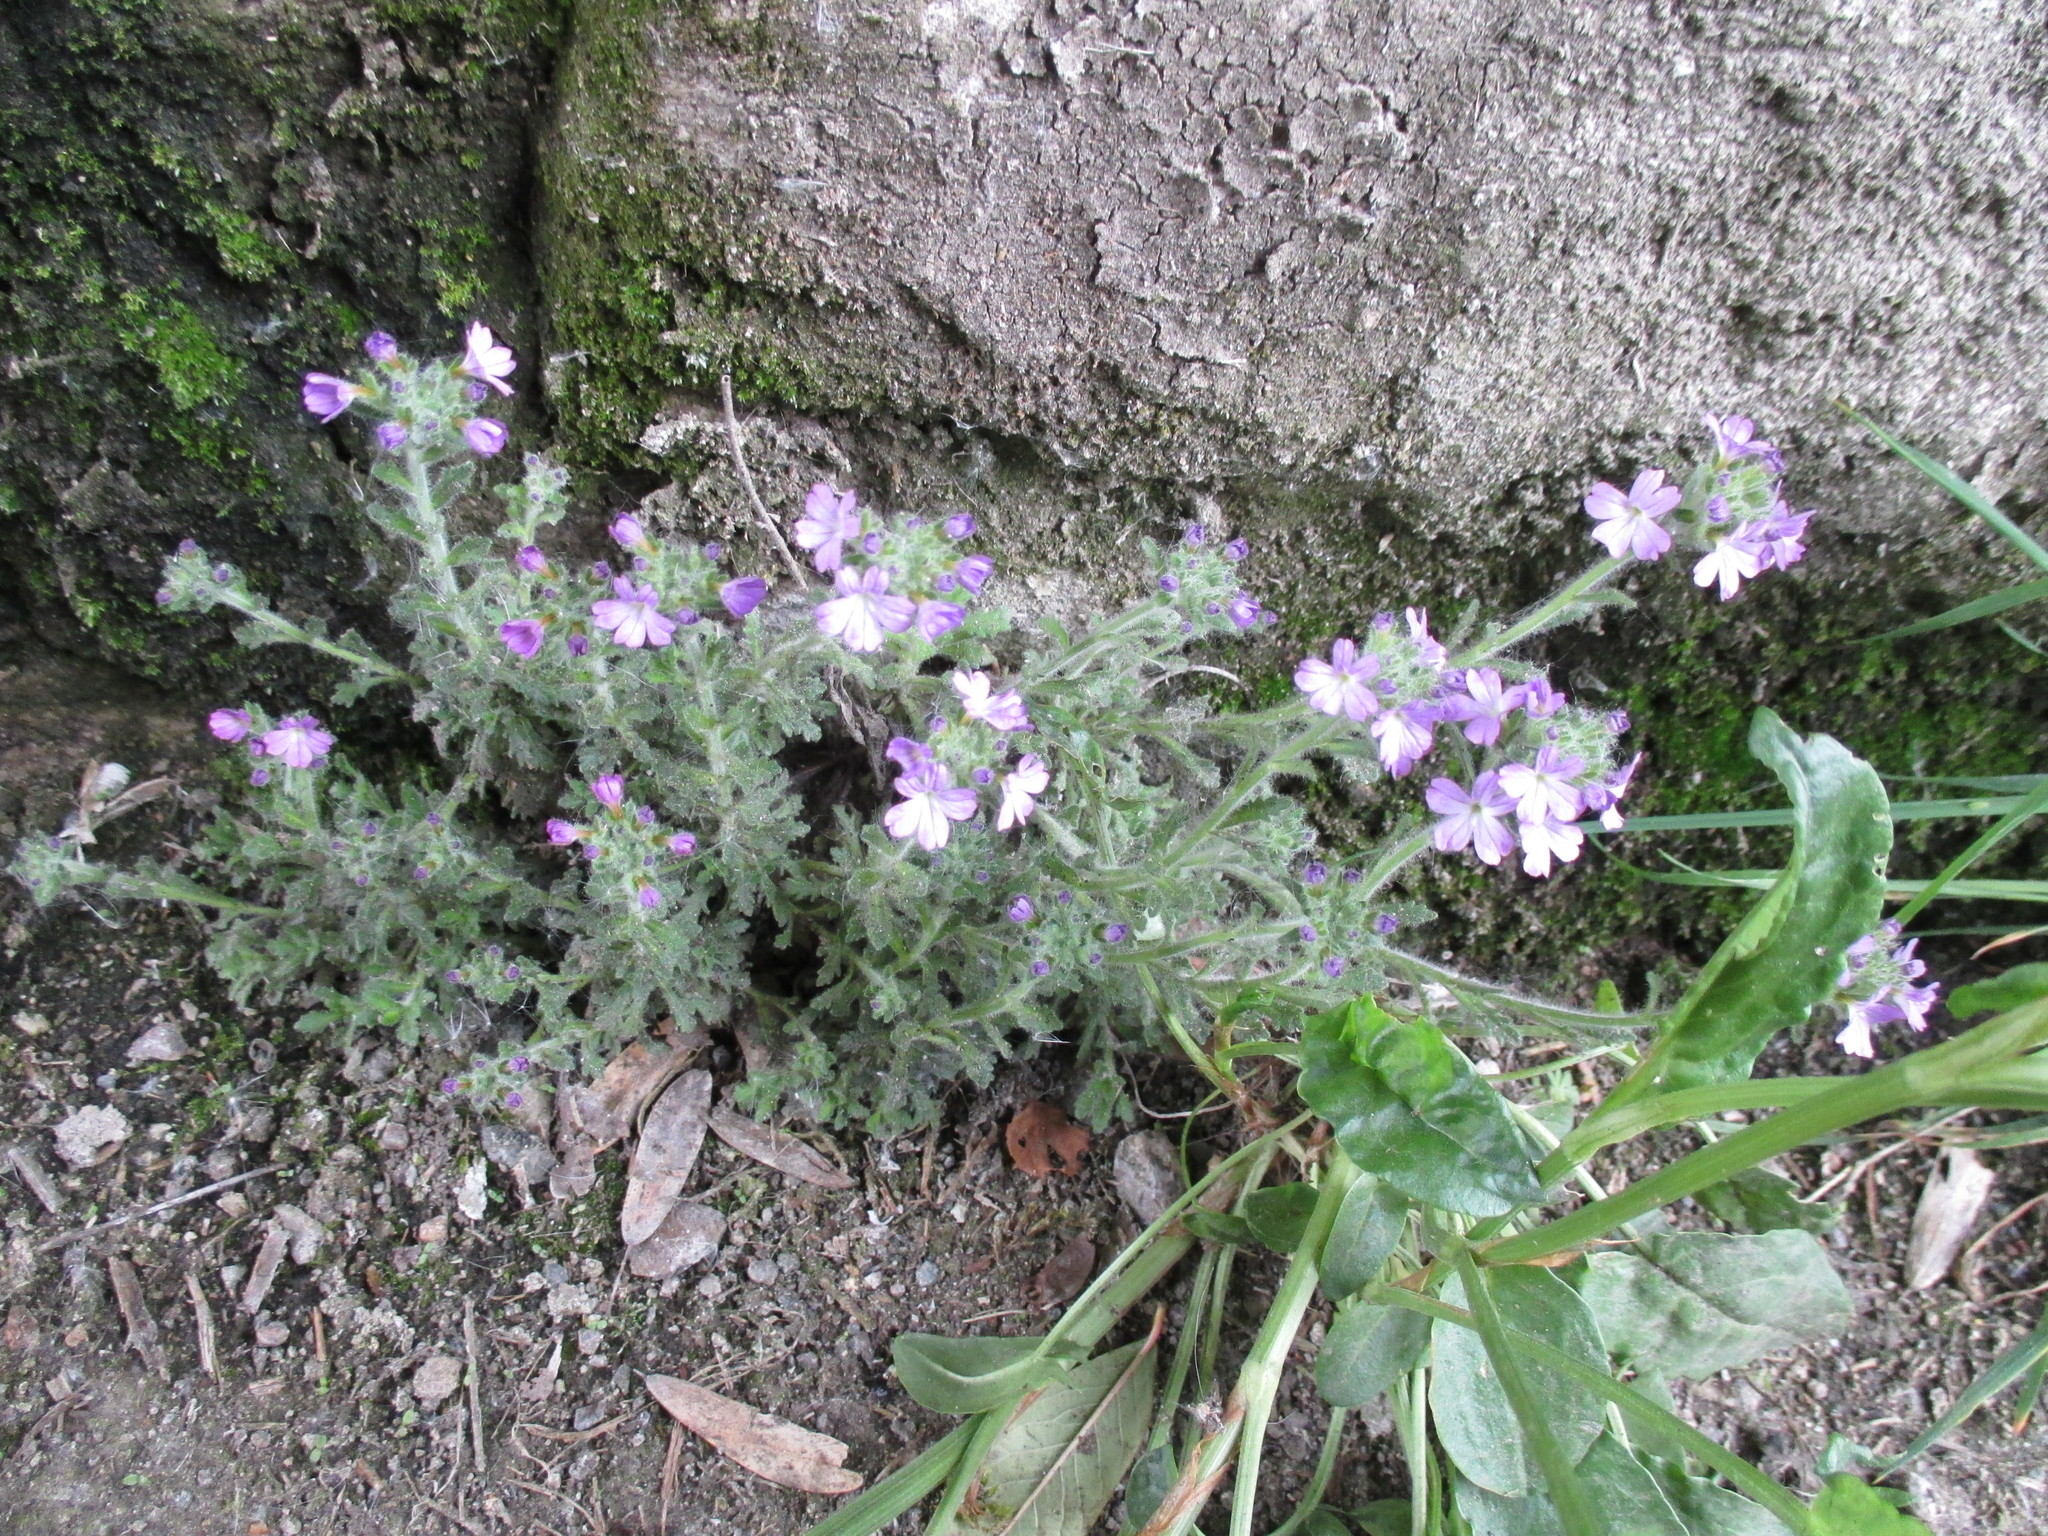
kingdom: Plantae
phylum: Tracheophyta
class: Magnoliopsida
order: Lamiales
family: Plantaginaceae
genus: Erinus
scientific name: Erinus alpinus
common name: Fairy foxglove
